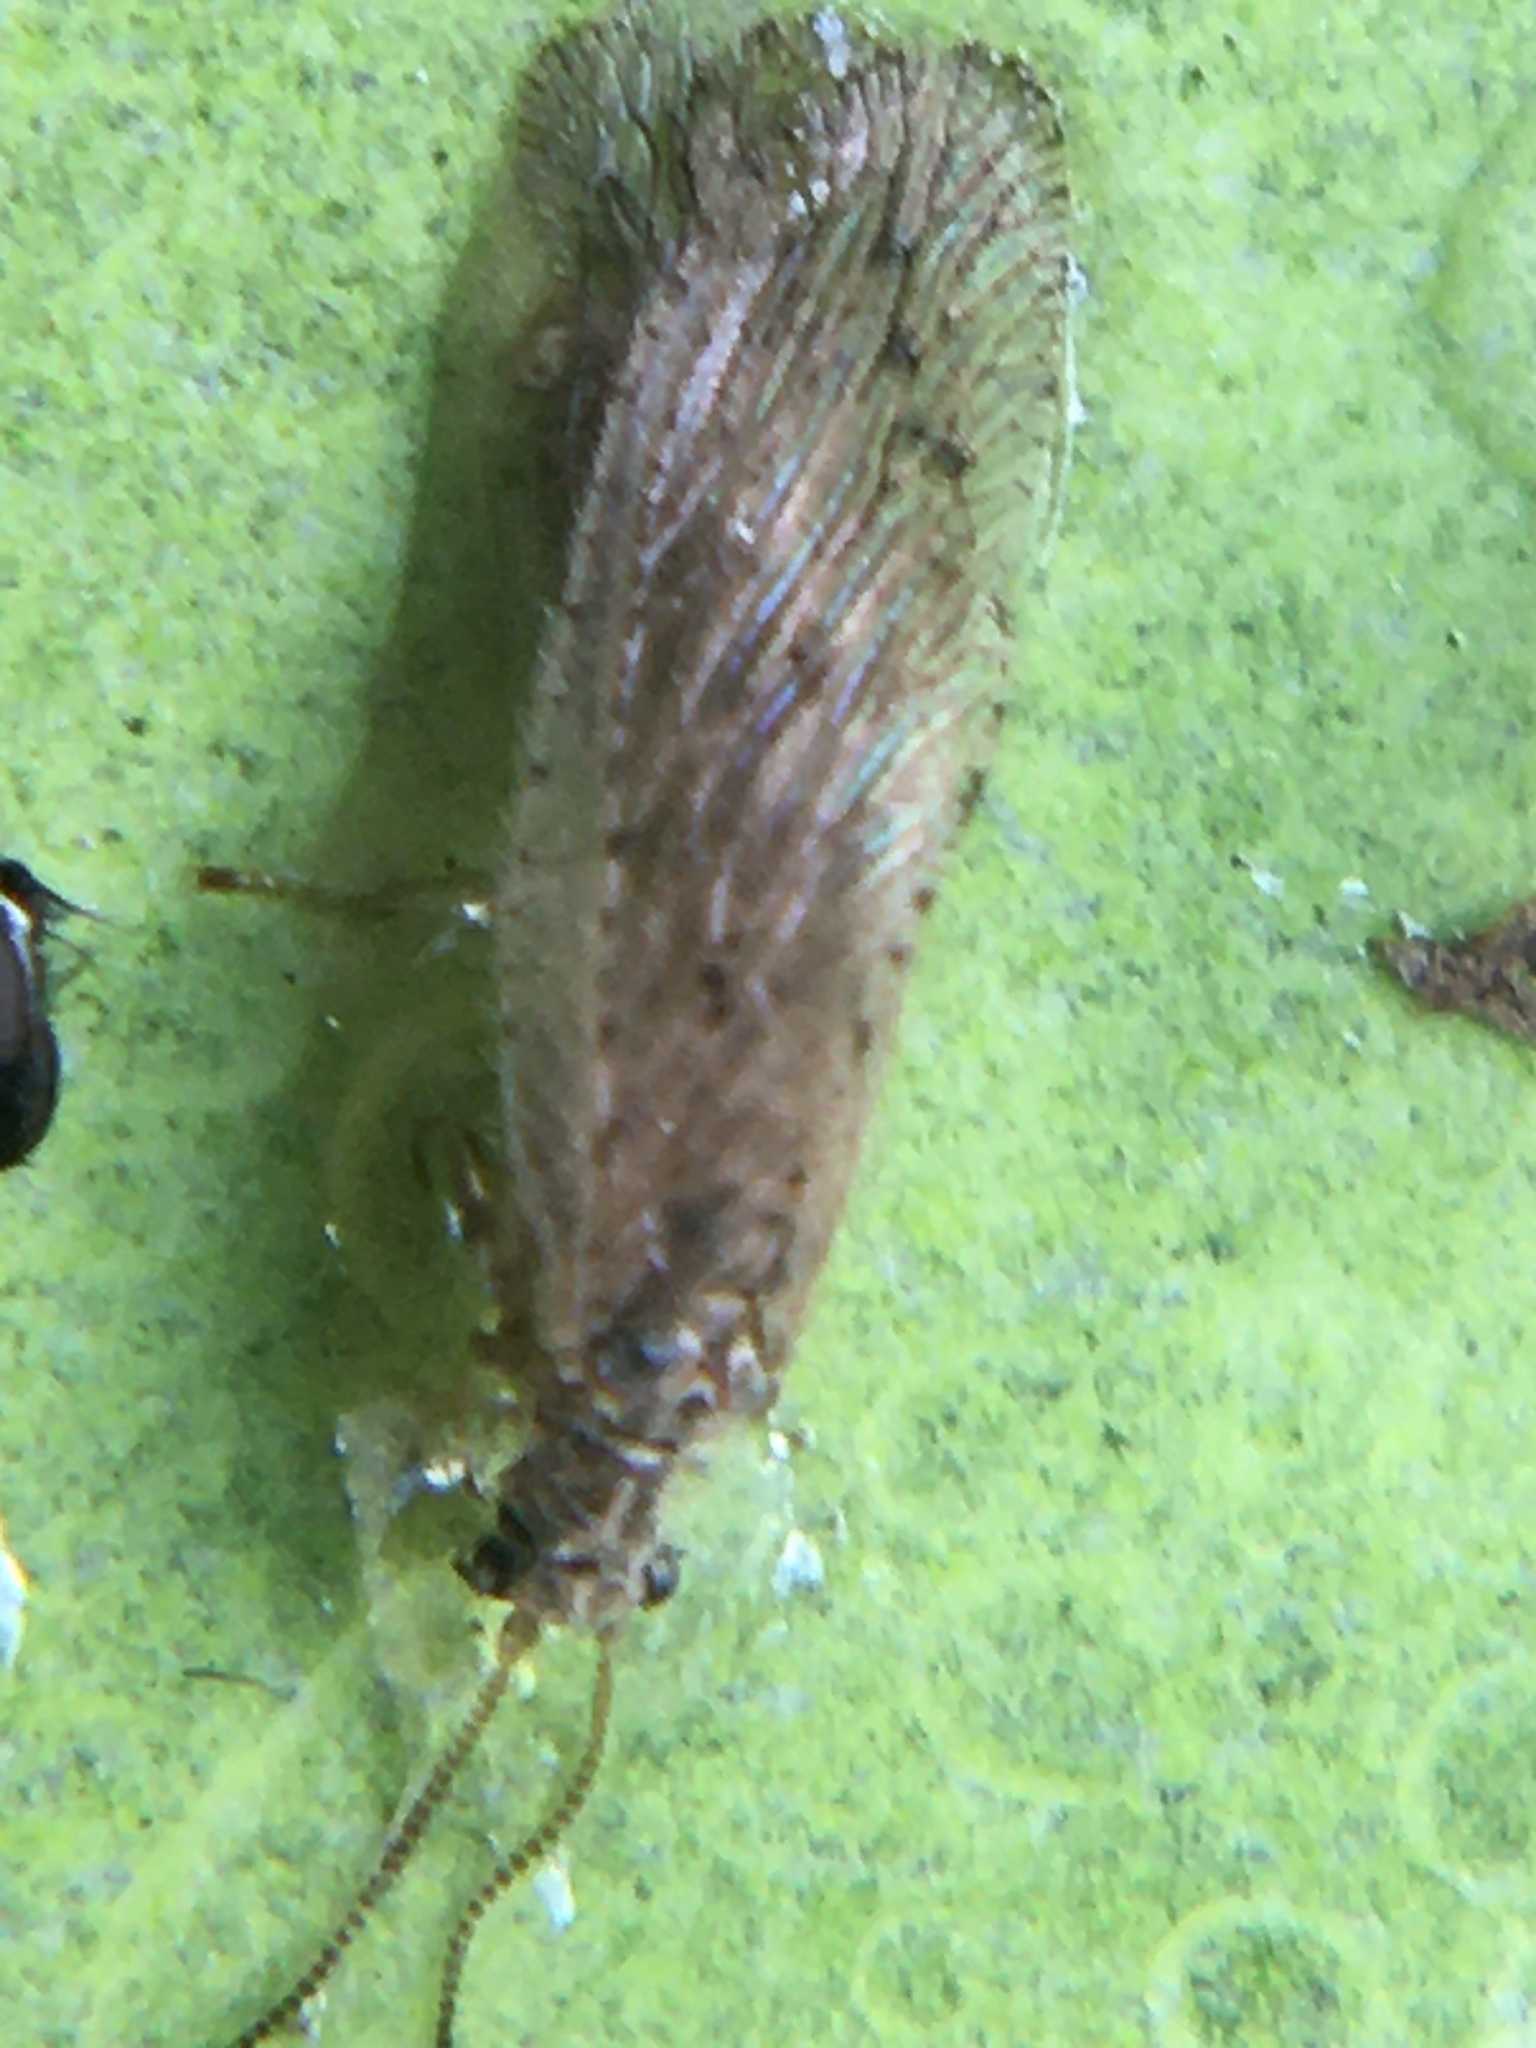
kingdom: Animalia
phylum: Arthropoda
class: Insecta
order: Neuroptera
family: Hemerobiidae
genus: Micromus
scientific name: Micromus subanticus
